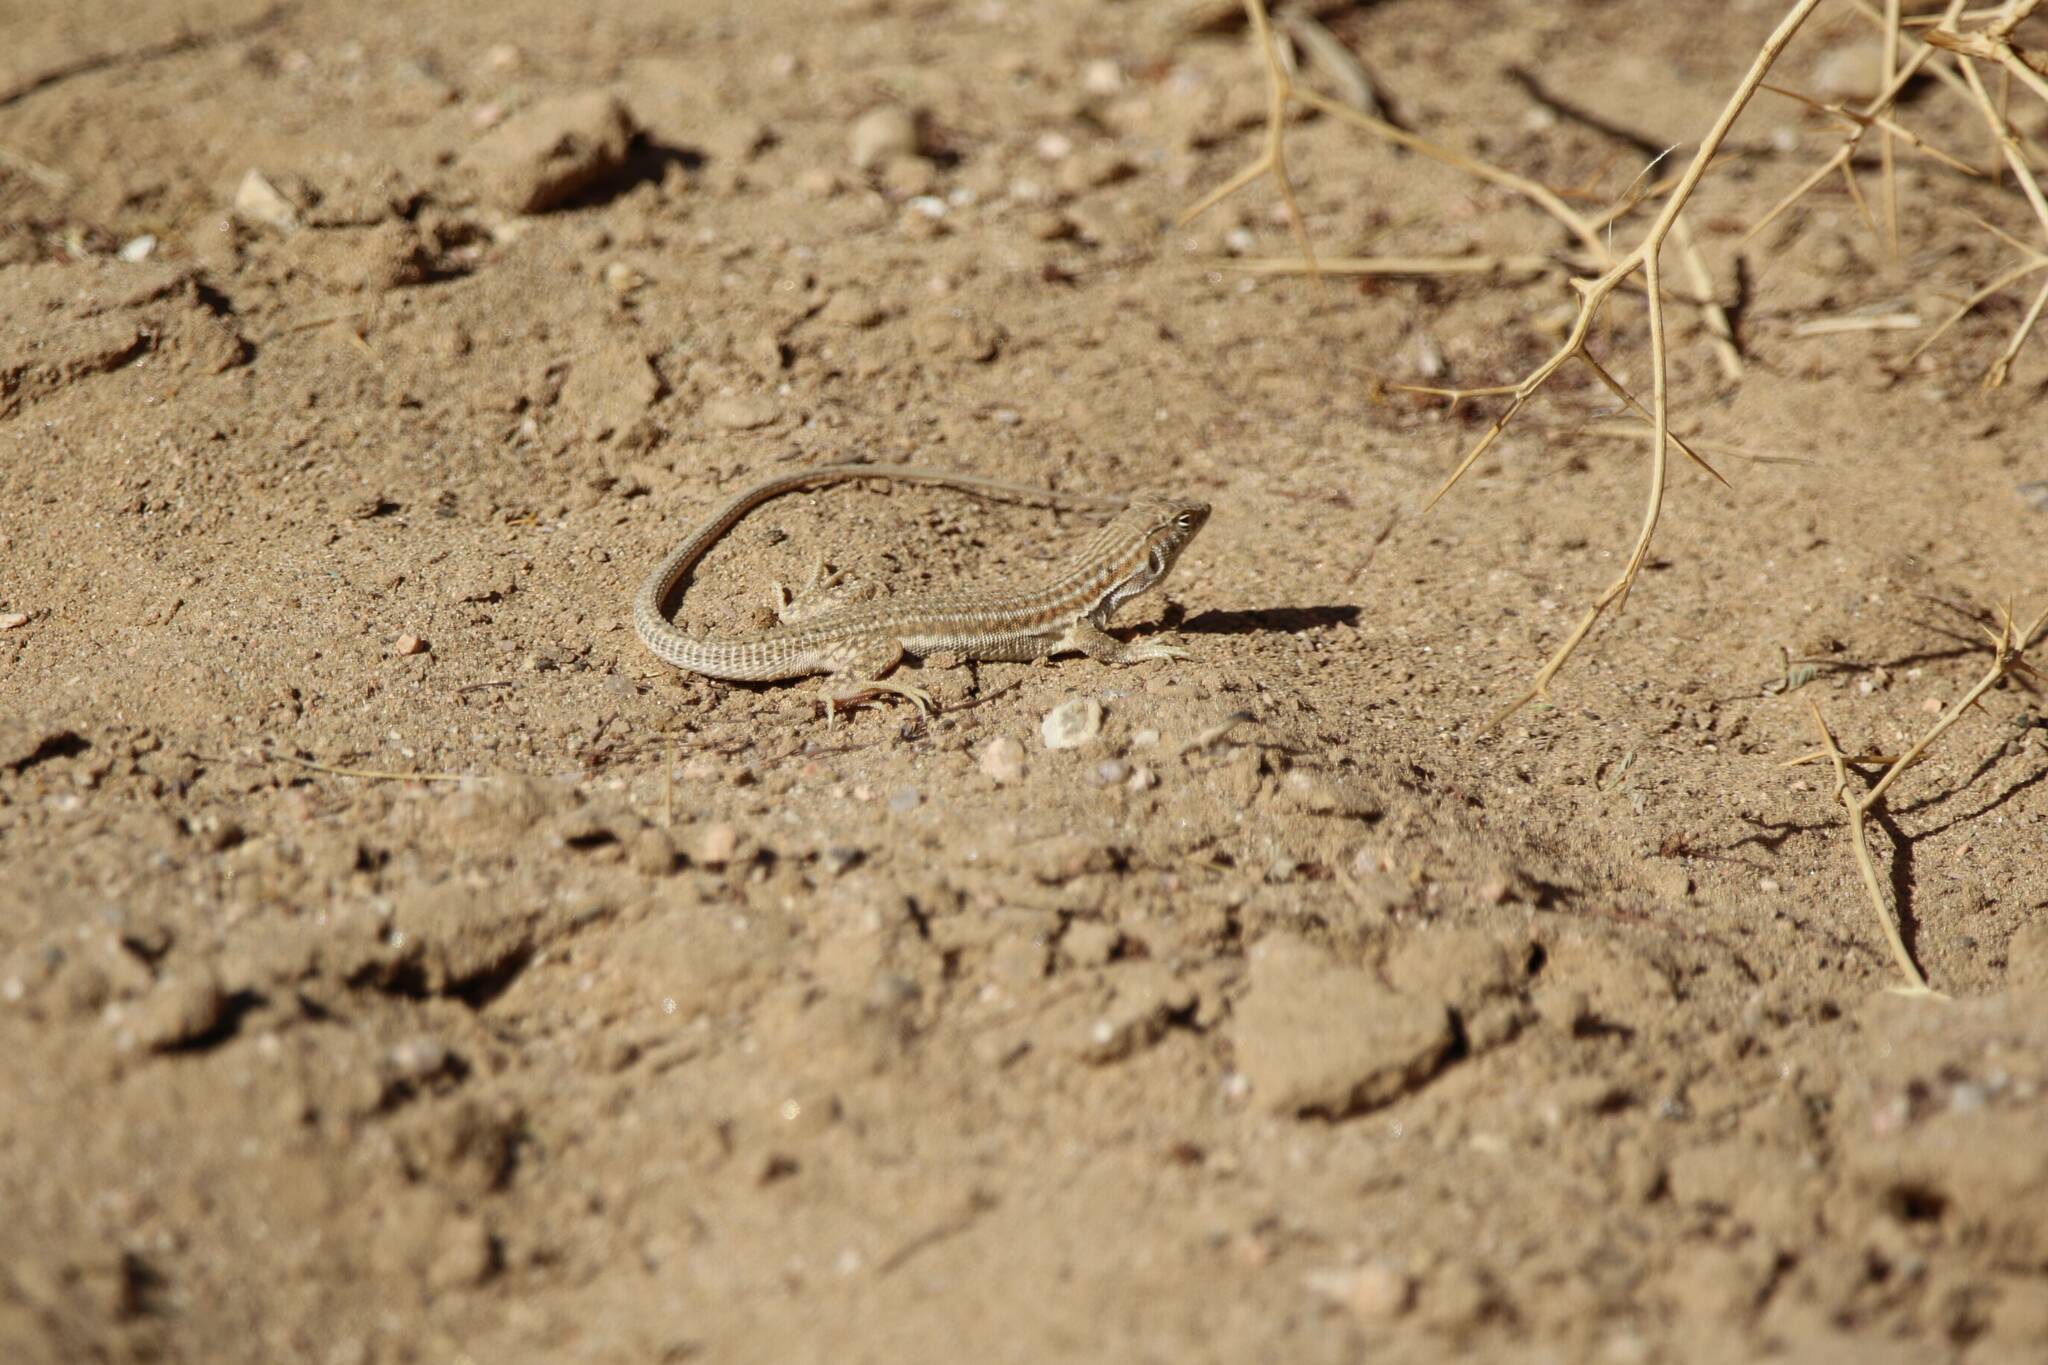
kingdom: Animalia
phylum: Chordata
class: Squamata
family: Lacertidae
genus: Acanthodactylus
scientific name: Acanthodactylus boskianus
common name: Bosc’s fringe-toed lizard
